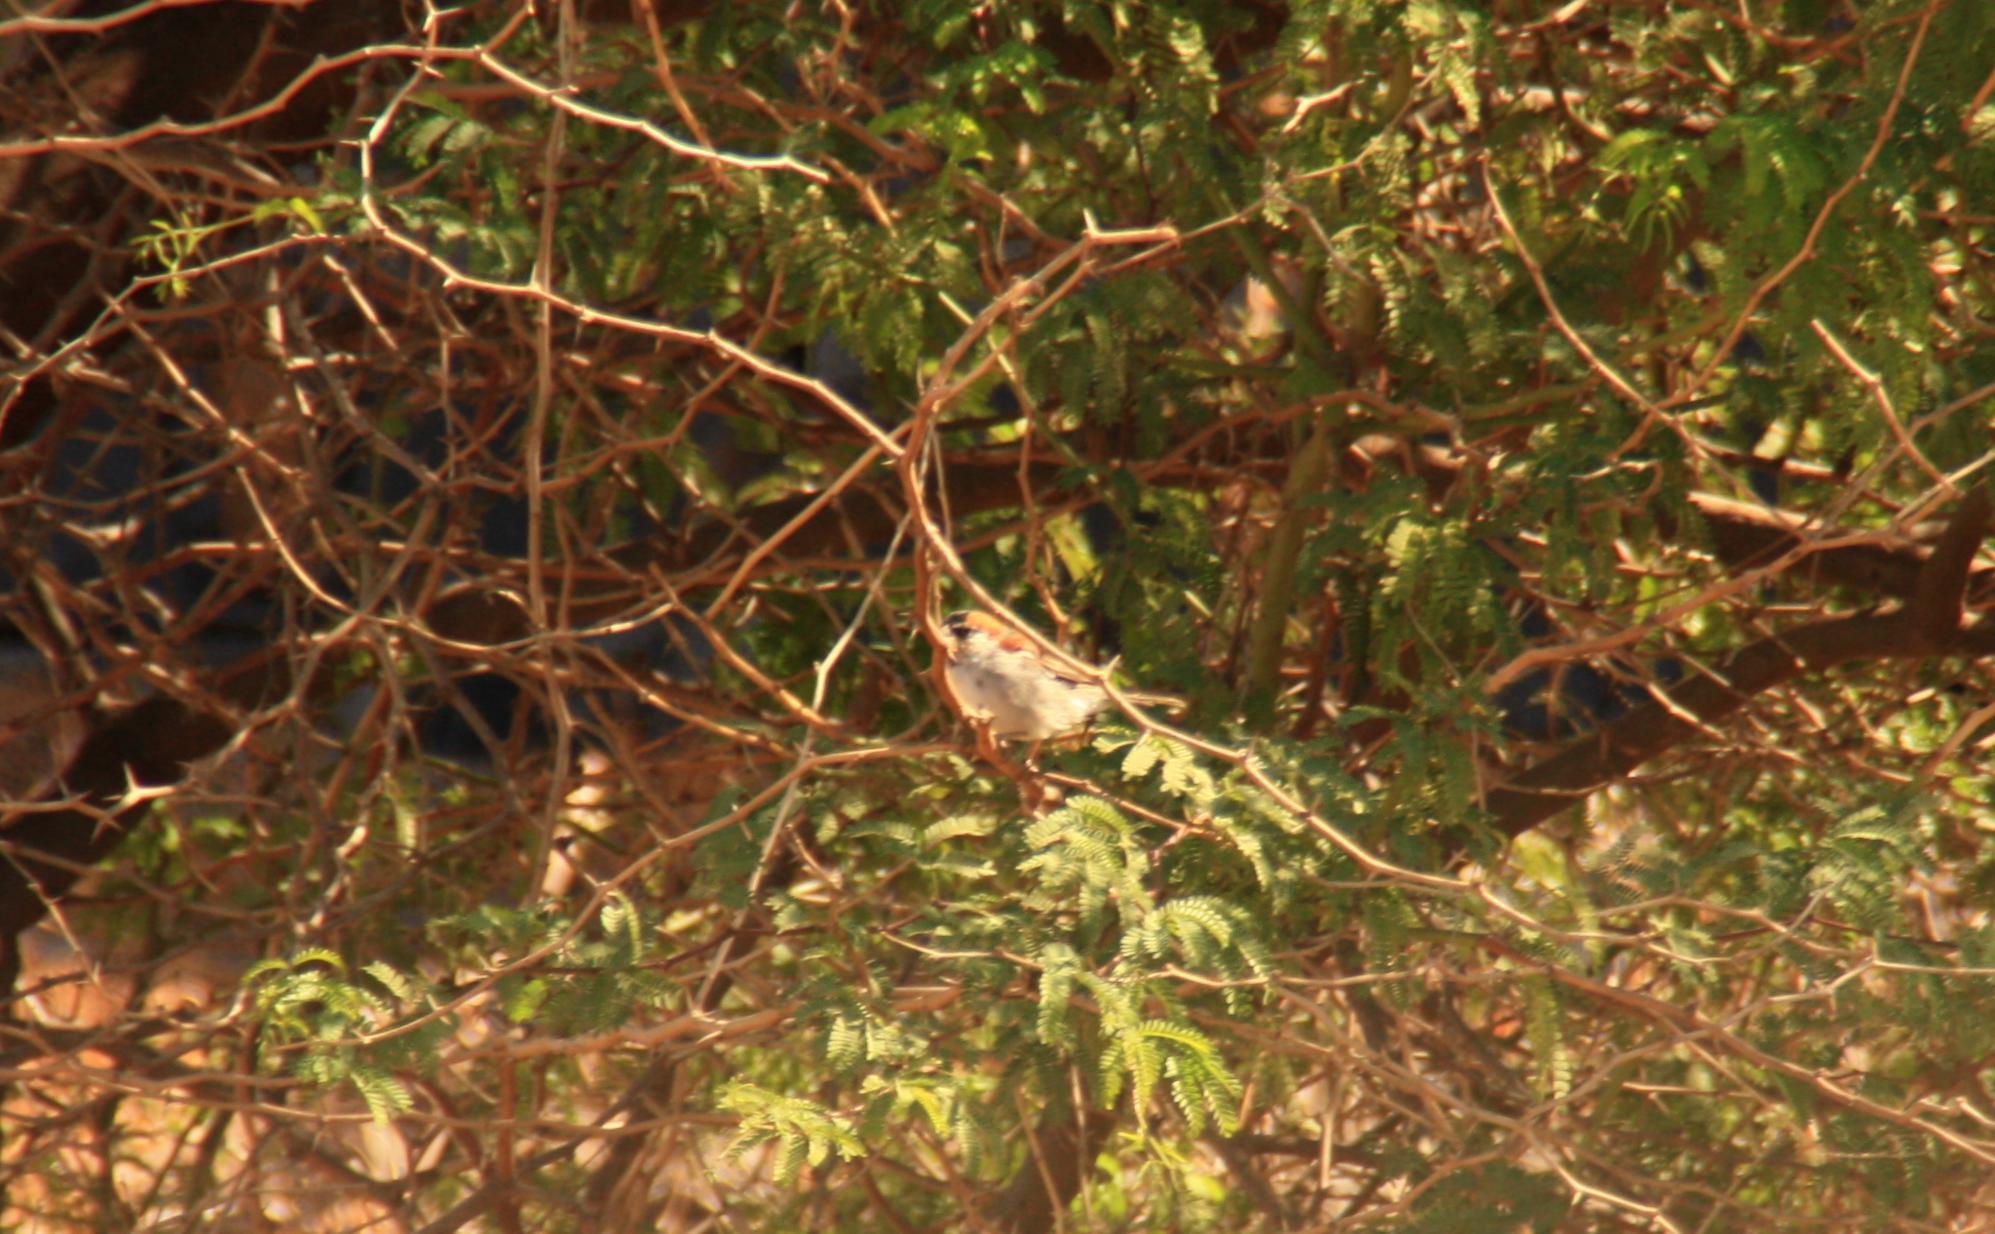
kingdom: Animalia
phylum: Chordata
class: Aves
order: Passeriformes
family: Passeridae
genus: Passer
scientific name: Passer iagoensis
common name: Iago sparrow
